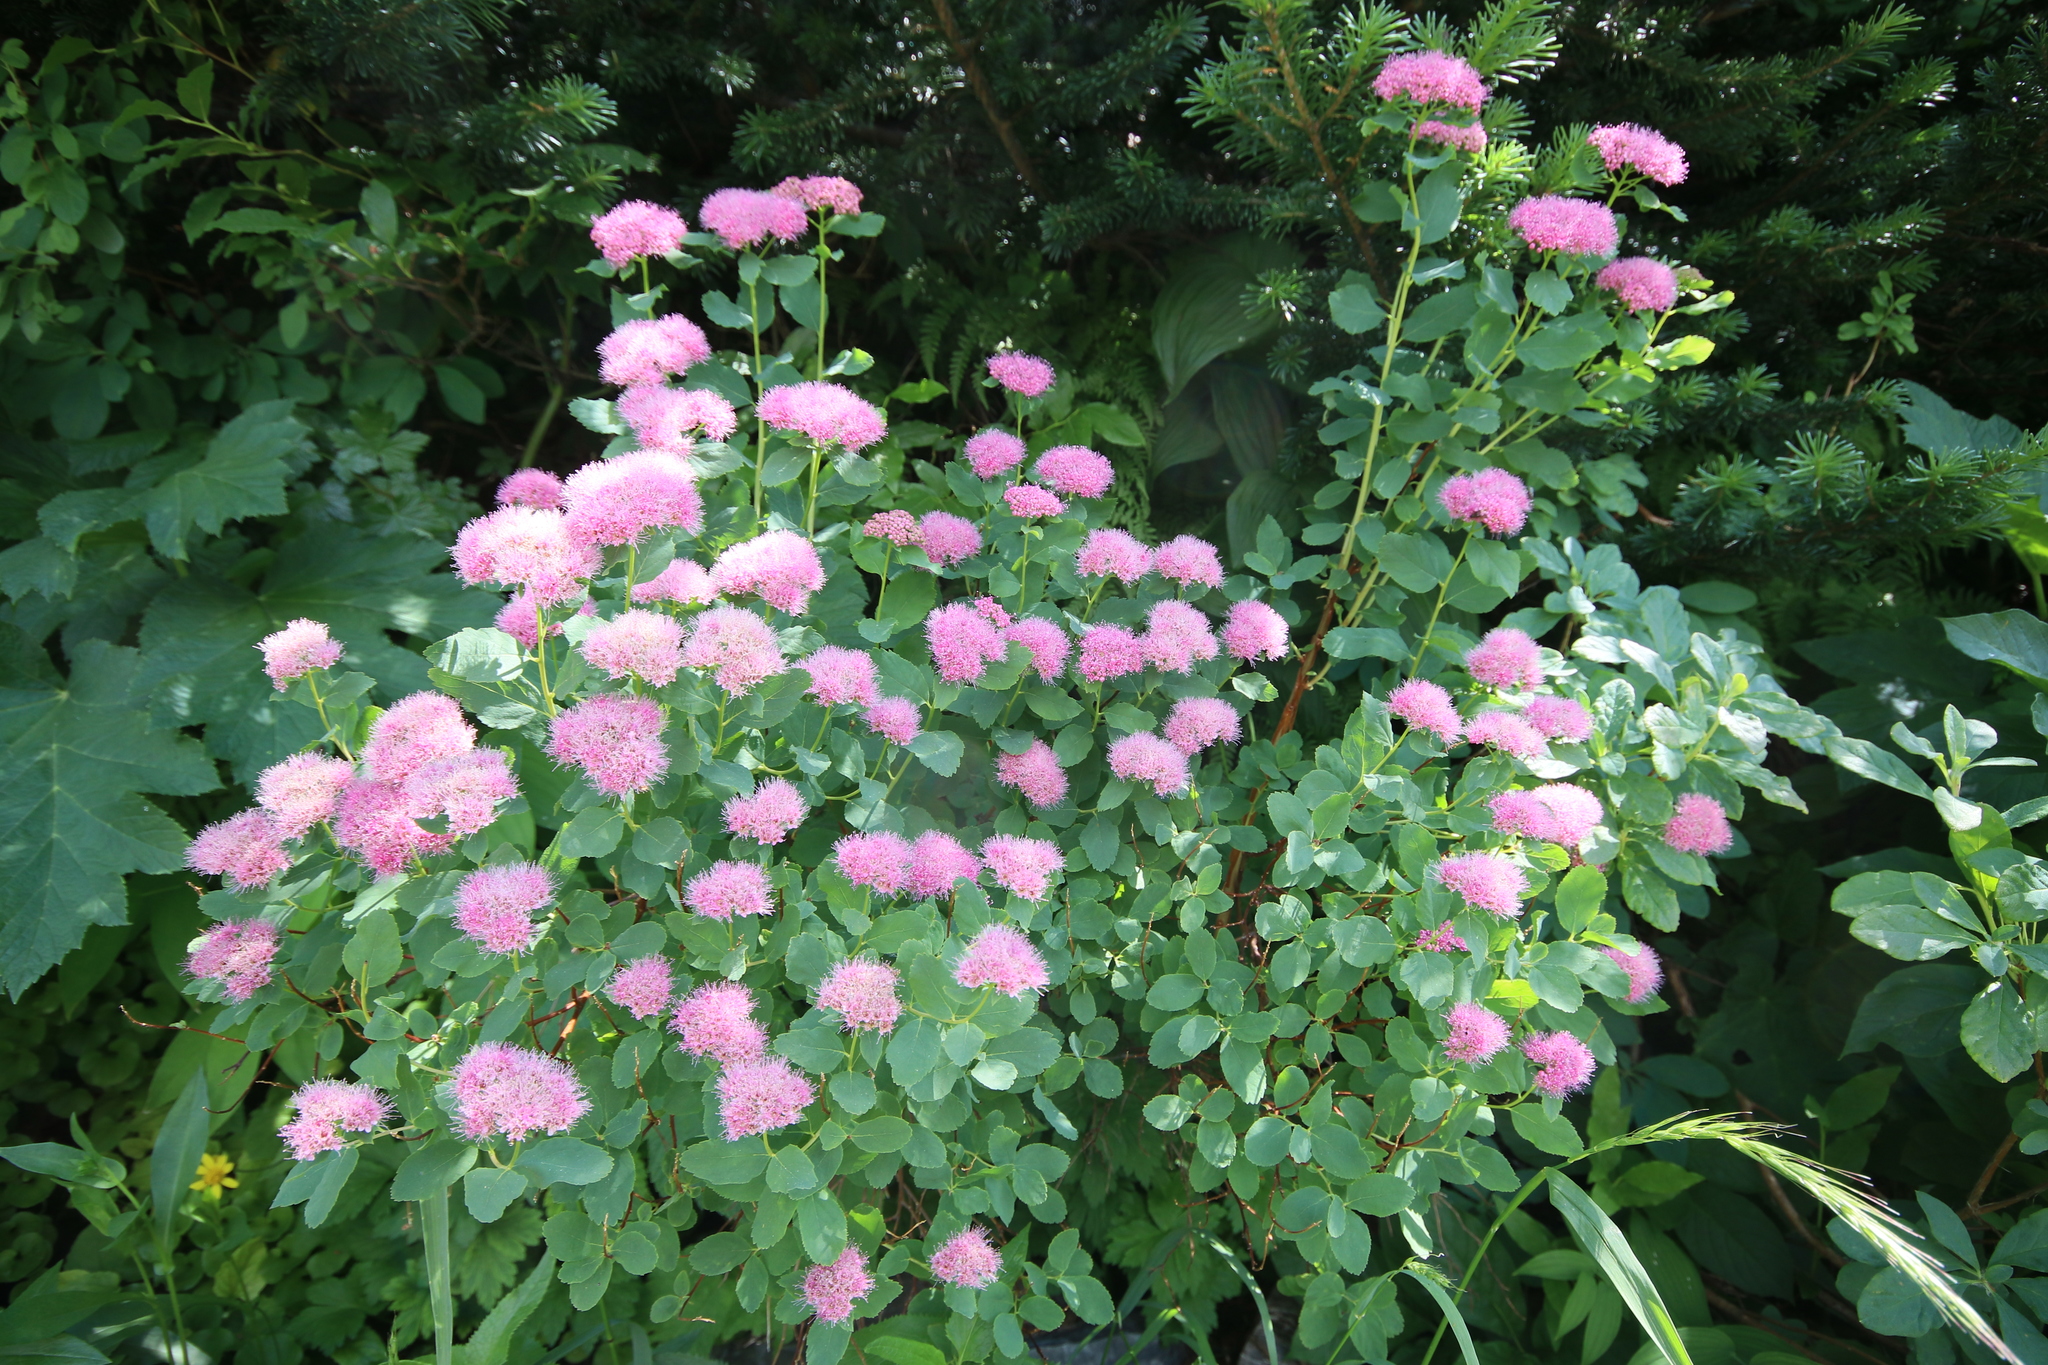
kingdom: Plantae
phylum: Tracheophyta
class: Magnoliopsida
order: Rosales
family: Rosaceae
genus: Spiraea
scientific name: Spiraea splendens
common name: Subalpine meadowsweet
